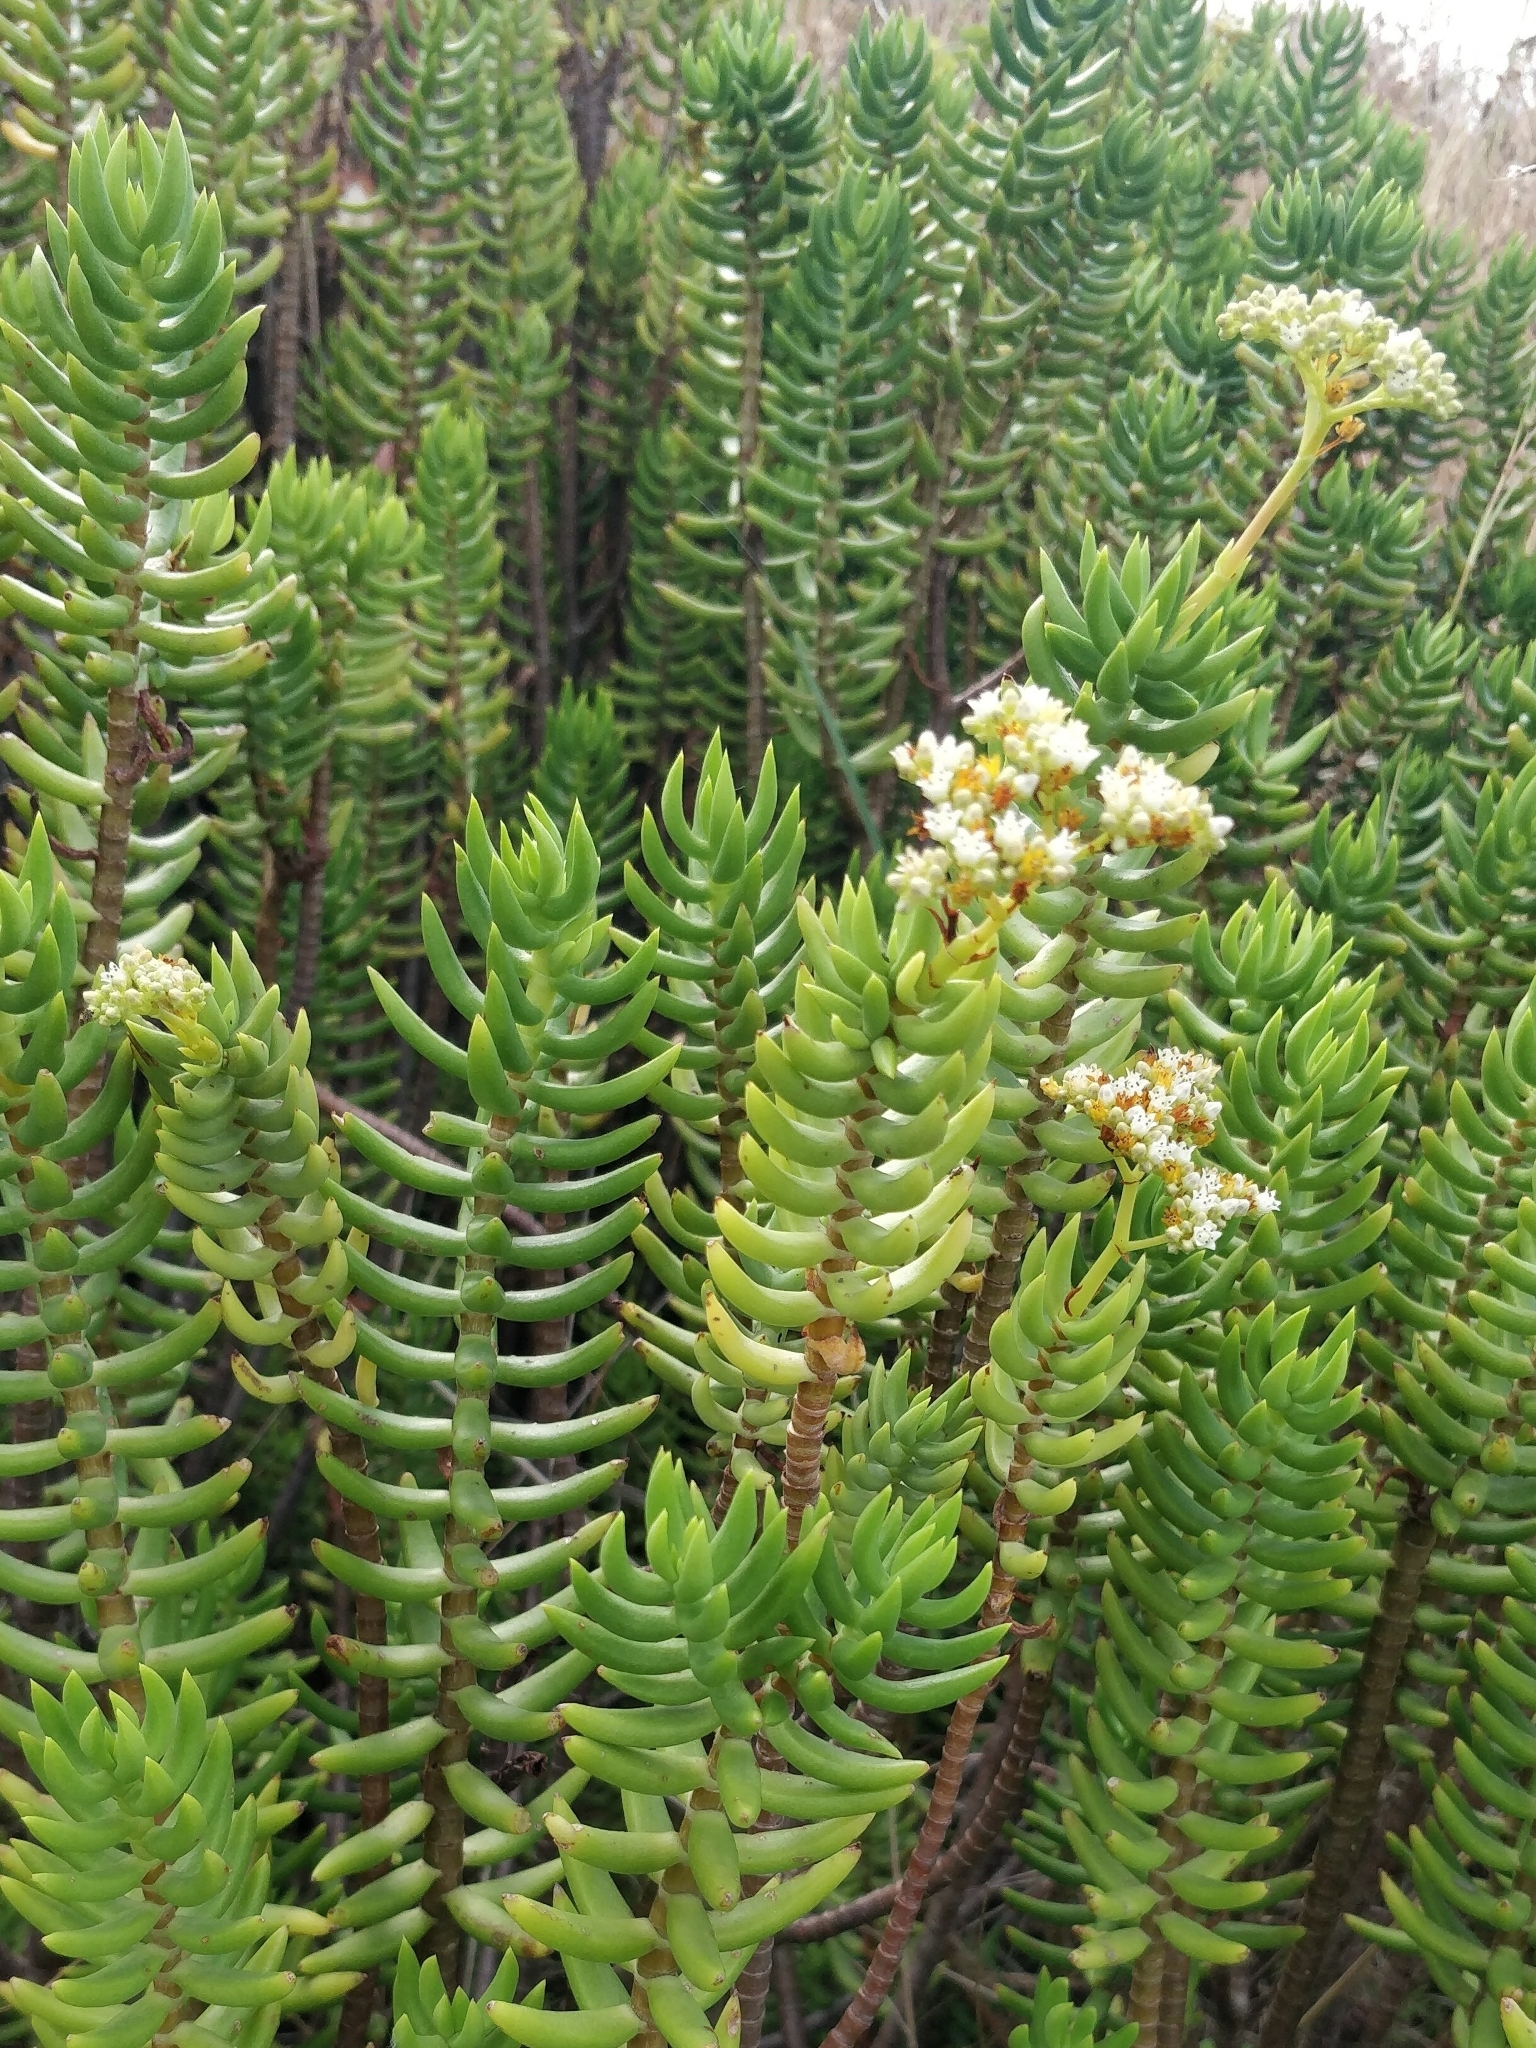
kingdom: Plantae
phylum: Tracheophyta
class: Magnoliopsida
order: Saxifragales
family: Crassulaceae
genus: Crassula
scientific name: Crassula tetragona
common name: Pygmyweed
